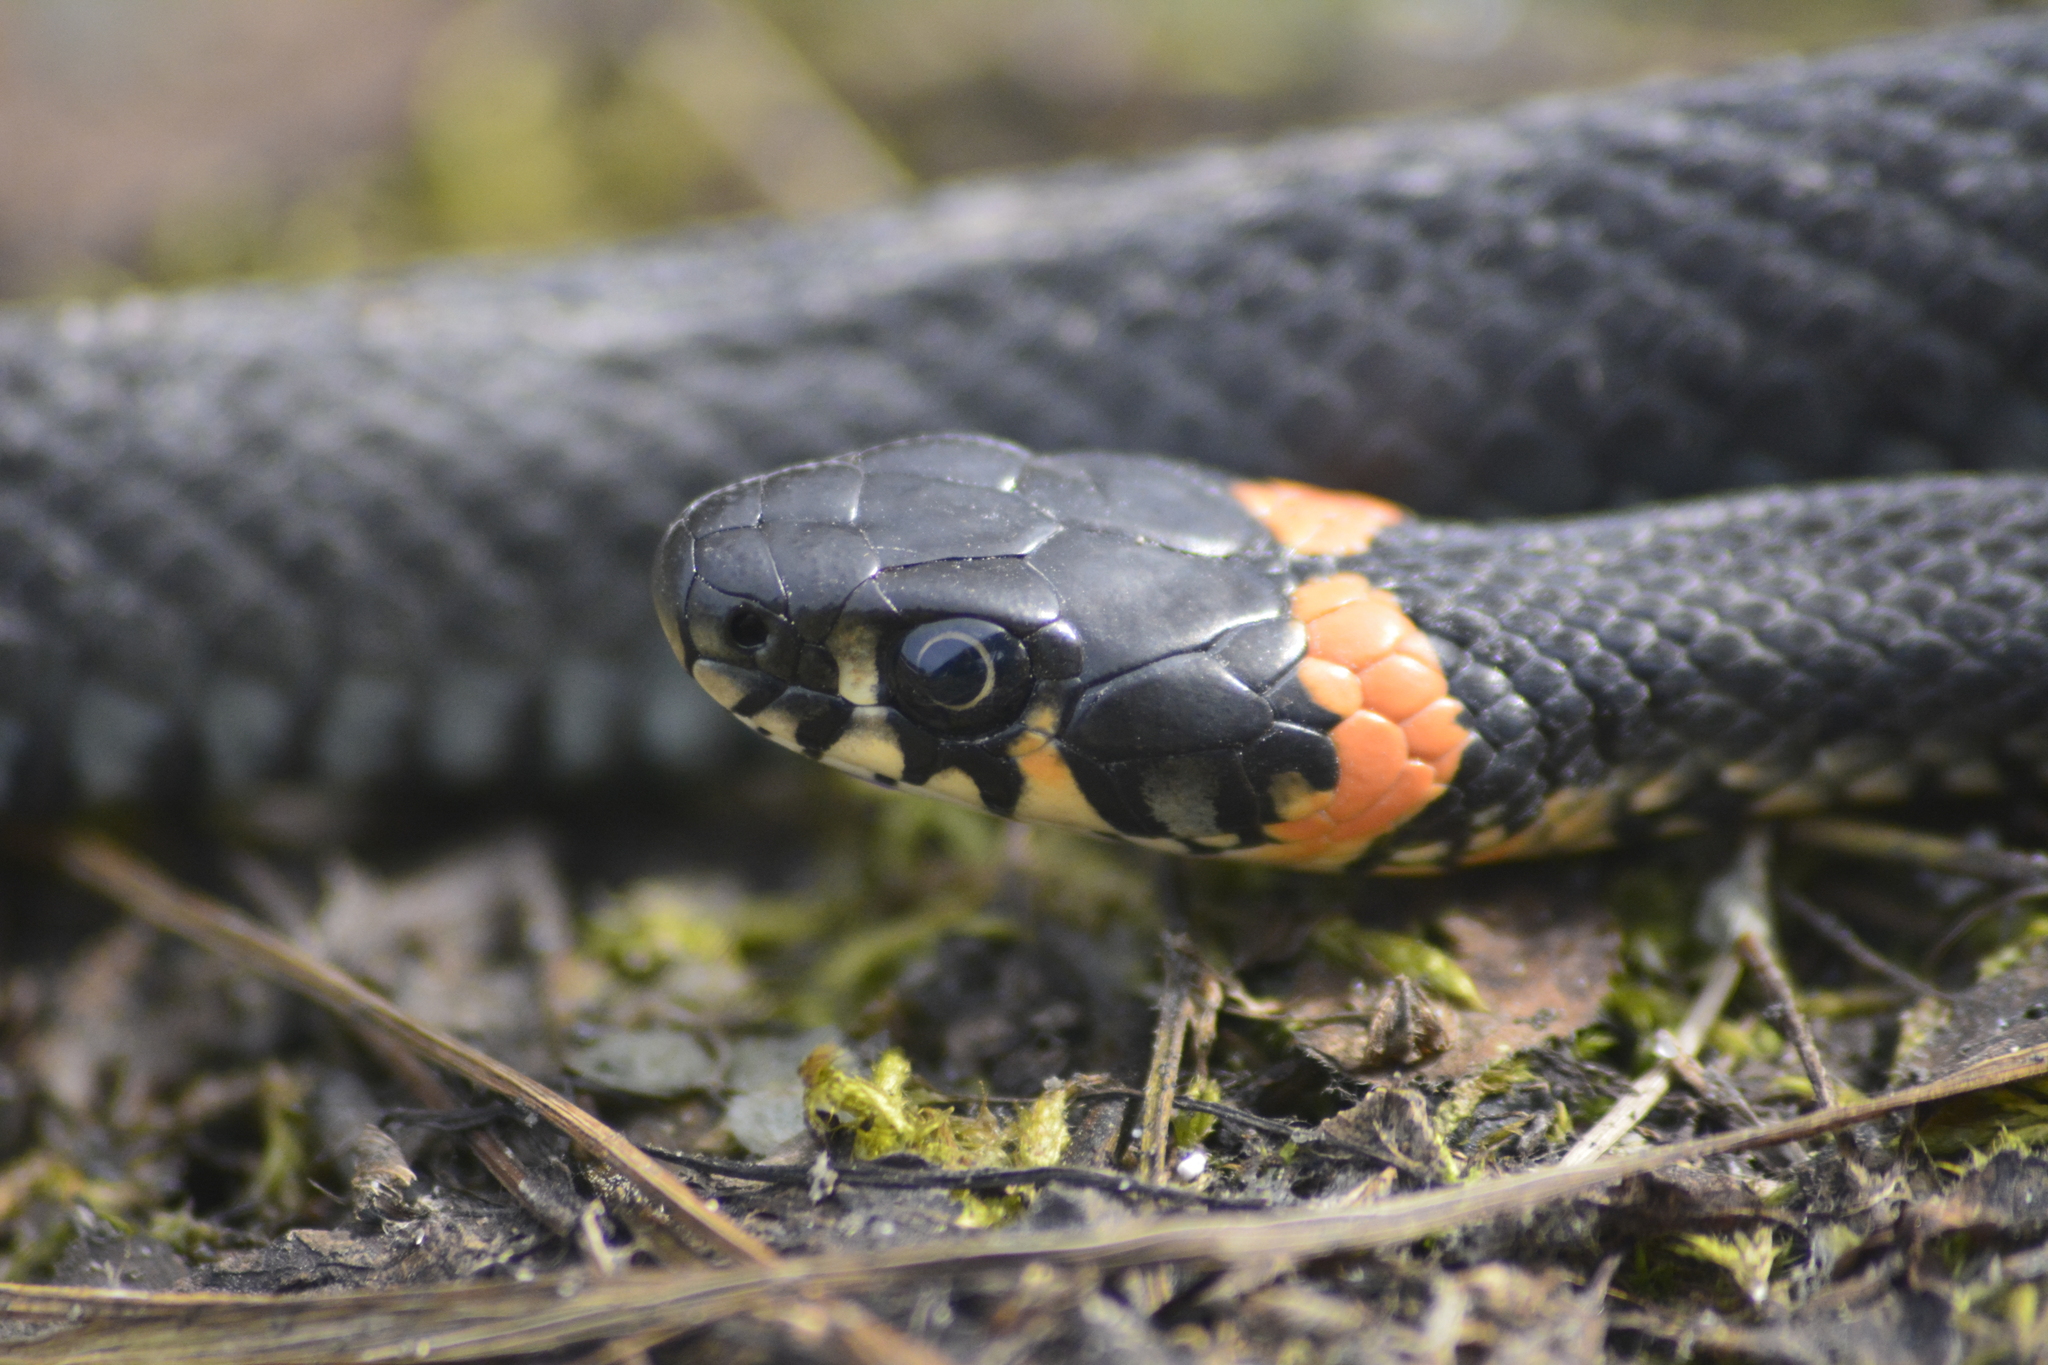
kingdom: Animalia
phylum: Chordata
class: Squamata
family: Colubridae
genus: Natrix
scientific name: Natrix natrix
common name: Grass snake
